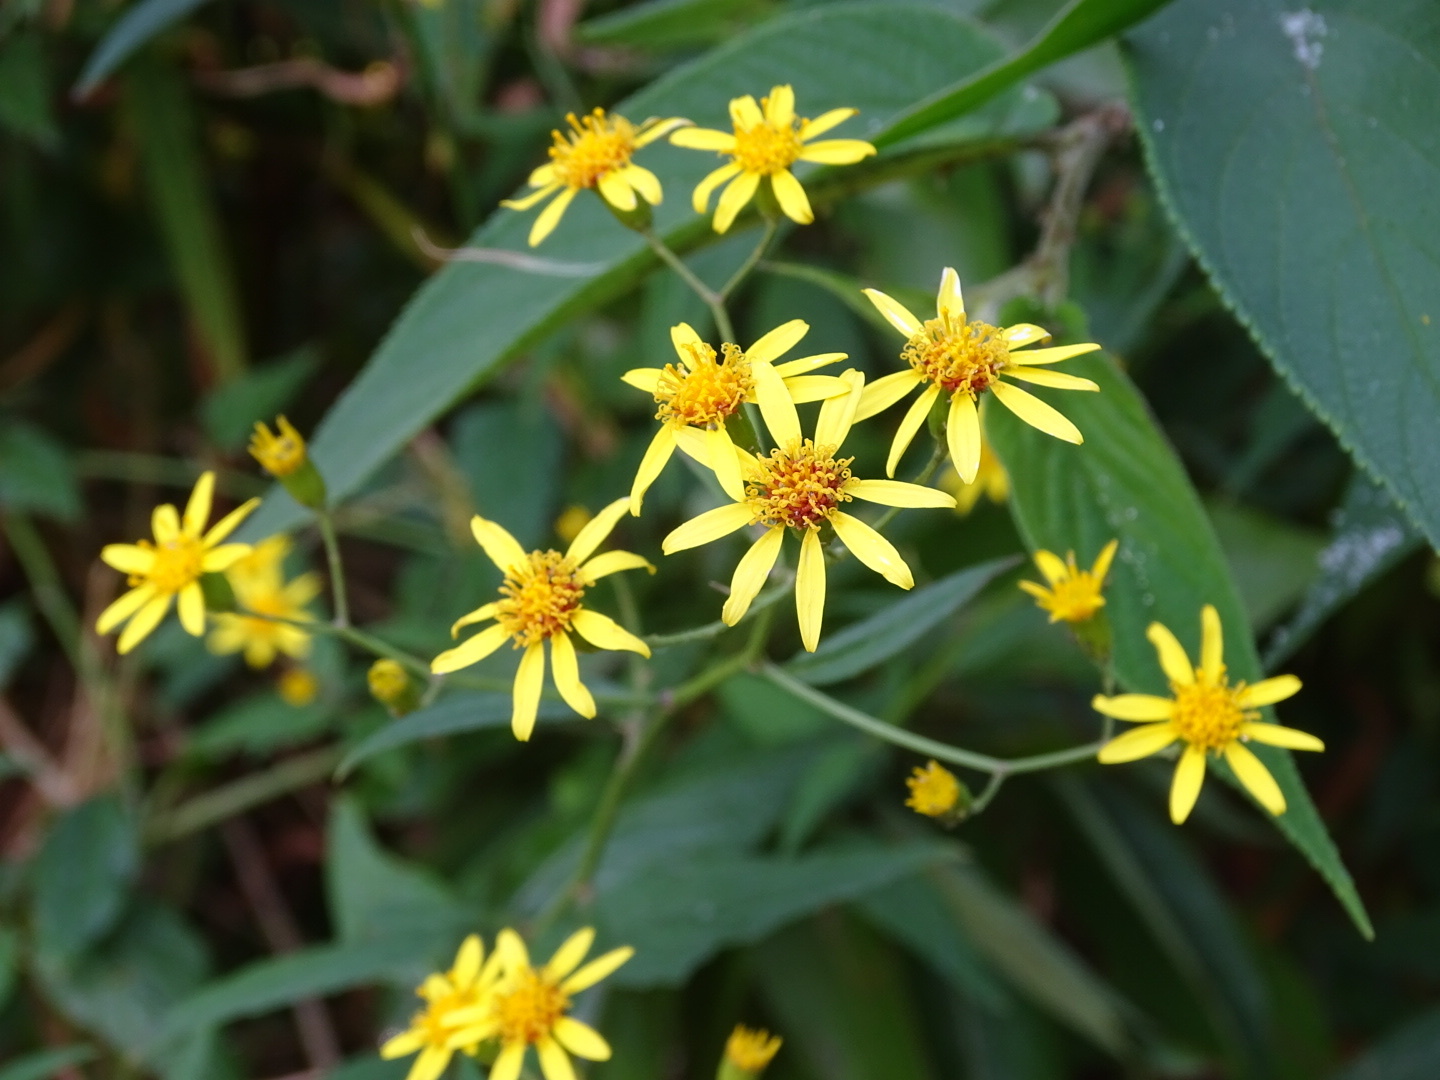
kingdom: Plantae
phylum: Tracheophyta
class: Magnoliopsida
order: Asterales
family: Asteraceae
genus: Senecio
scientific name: Senecio scandens
